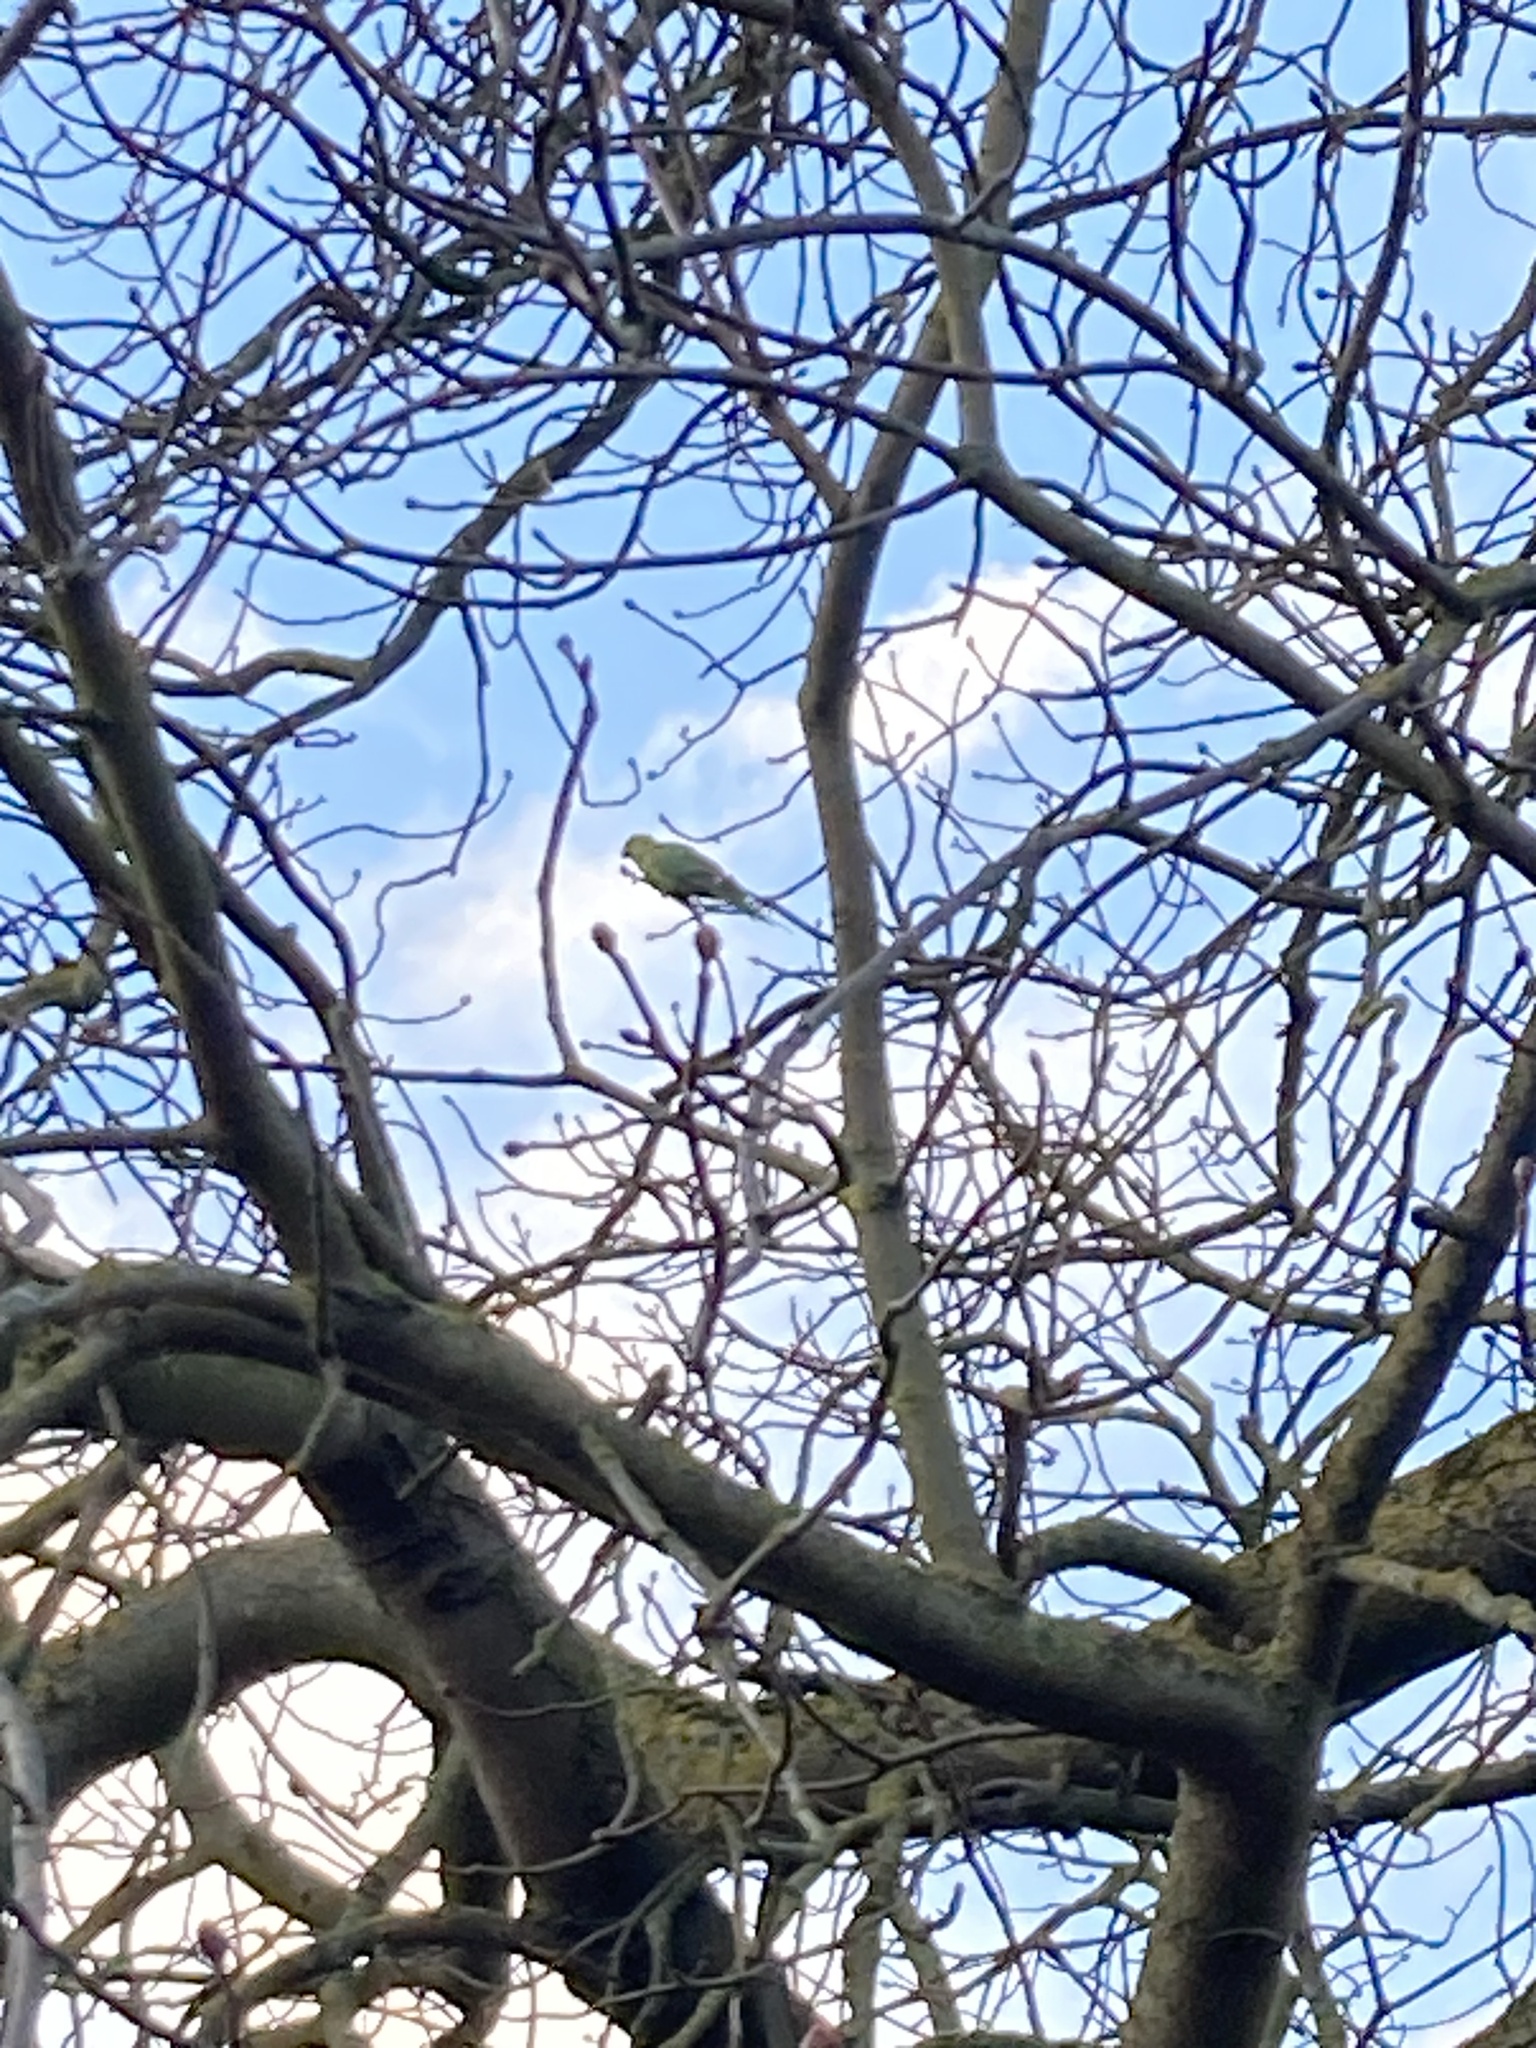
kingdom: Animalia
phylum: Chordata
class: Aves
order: Psittaciformes
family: Psittacidae
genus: Psittacula
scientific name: Psittacula krameri
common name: Rose-ringed parakeet
